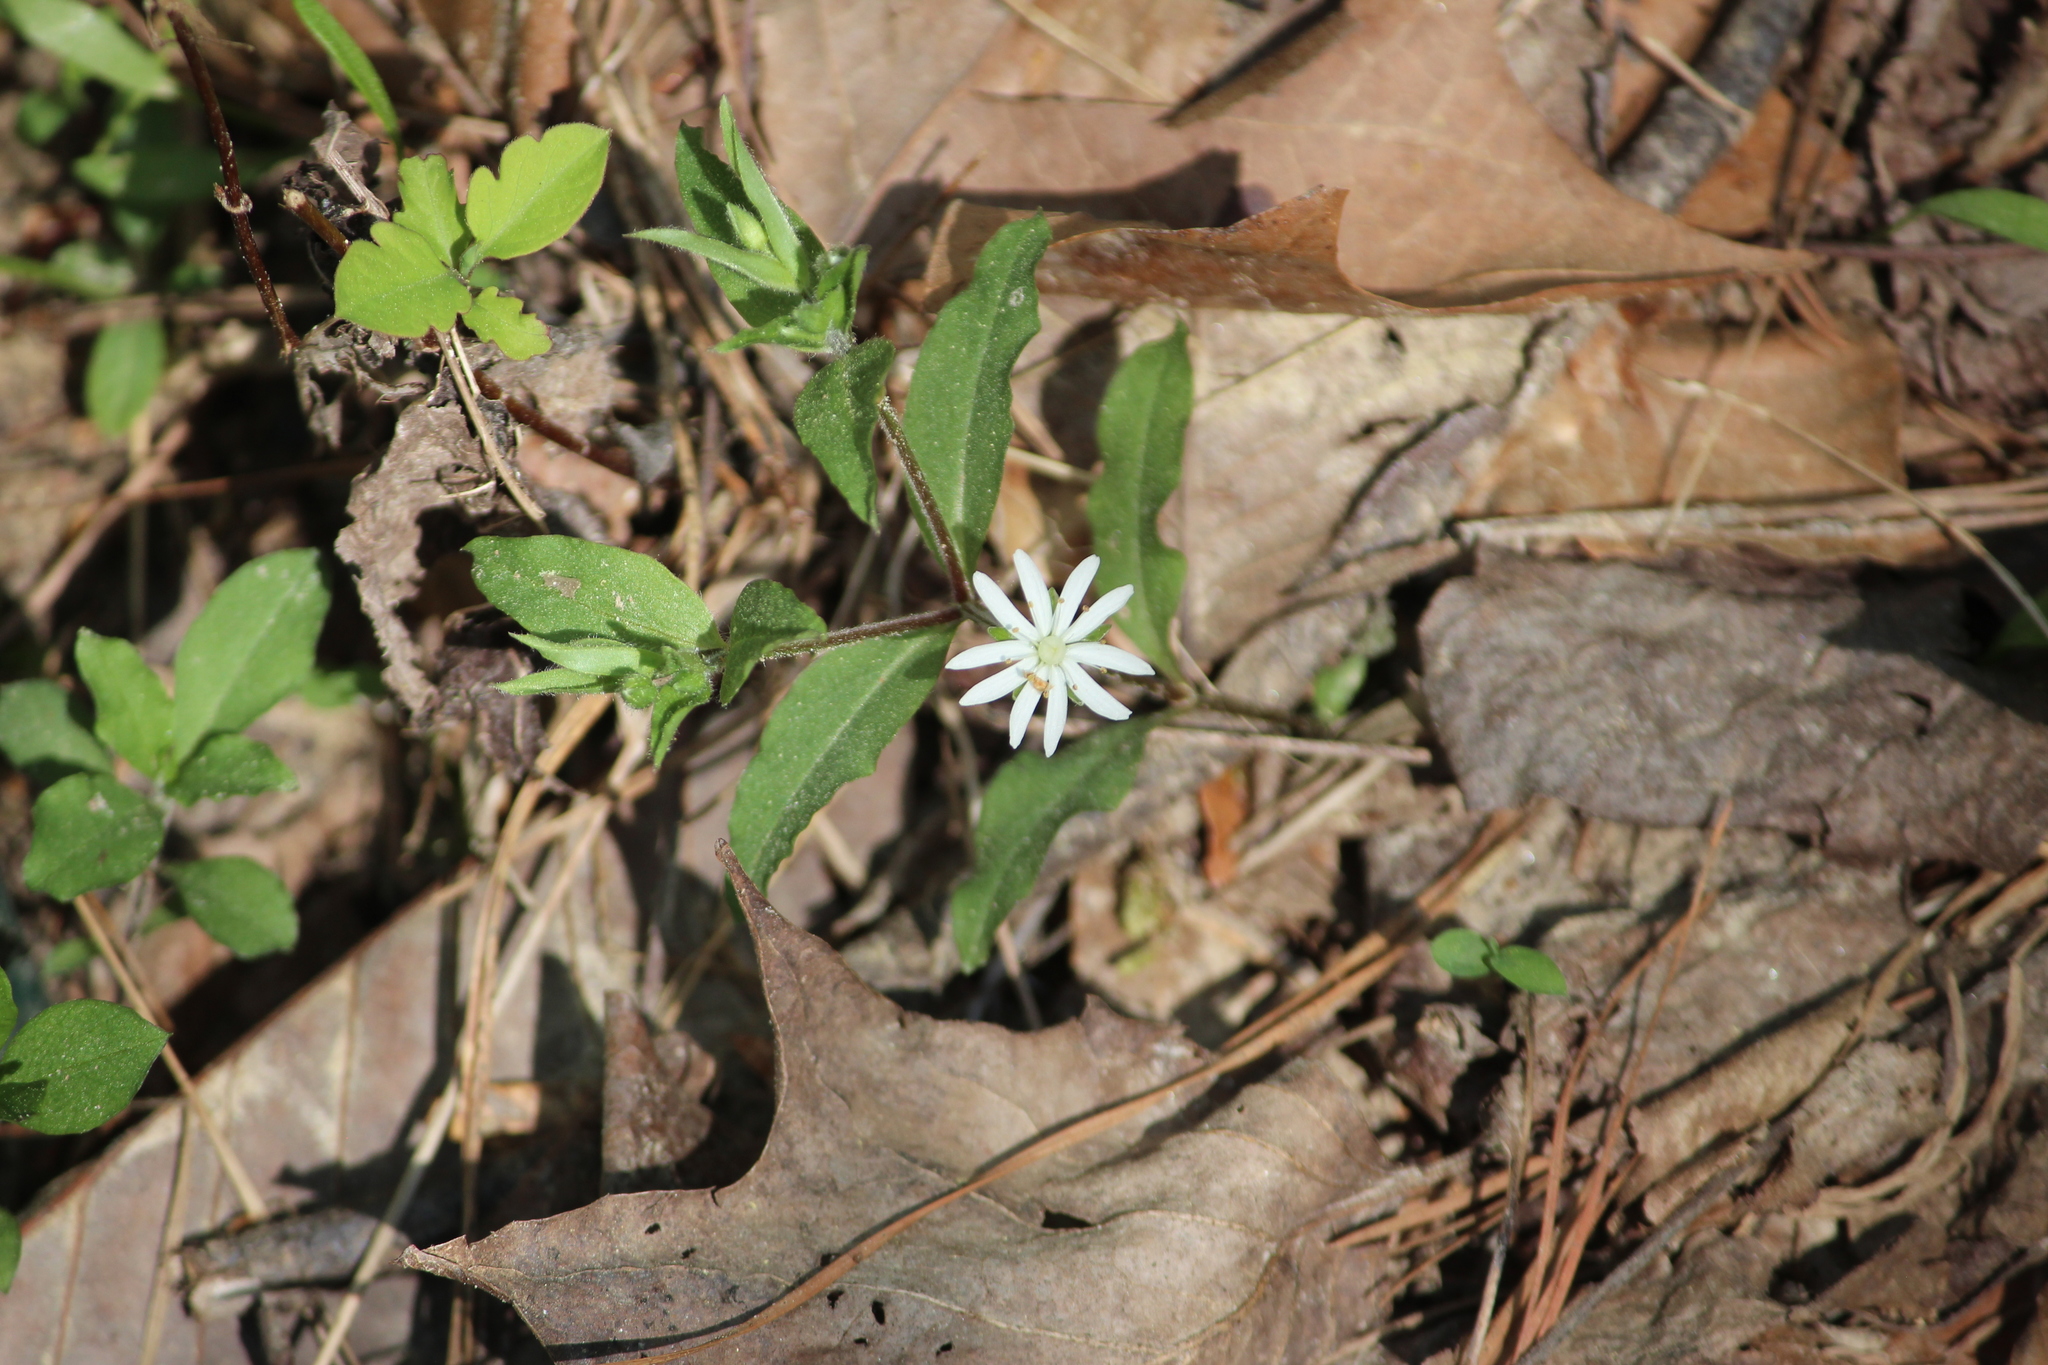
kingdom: Plantae
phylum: Tracheophyta
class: Magnoliopsida
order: Caryophyllales
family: Caryophyllaceae
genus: Stellaria
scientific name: Stellaria pubera
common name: Star chickweed
